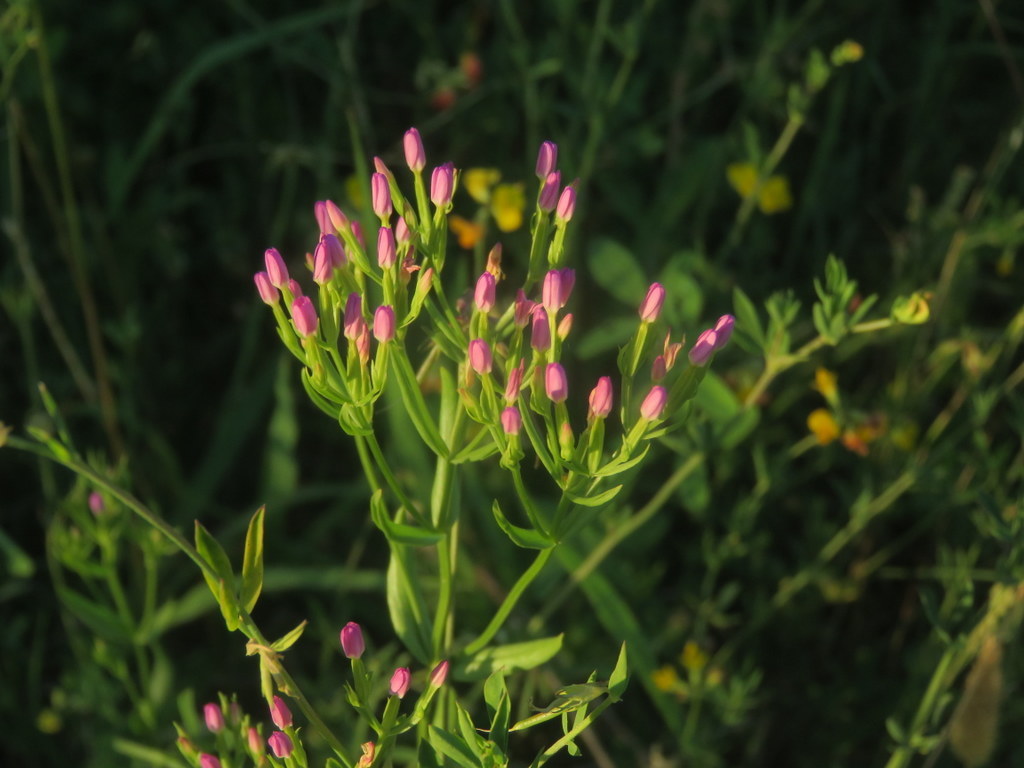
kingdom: Plantae
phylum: Tracheophyta
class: Magnoliopsida
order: Gentianales
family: Gentianaceae
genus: Centaurium
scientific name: Centaurium pulchellum
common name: Lesser centaury
